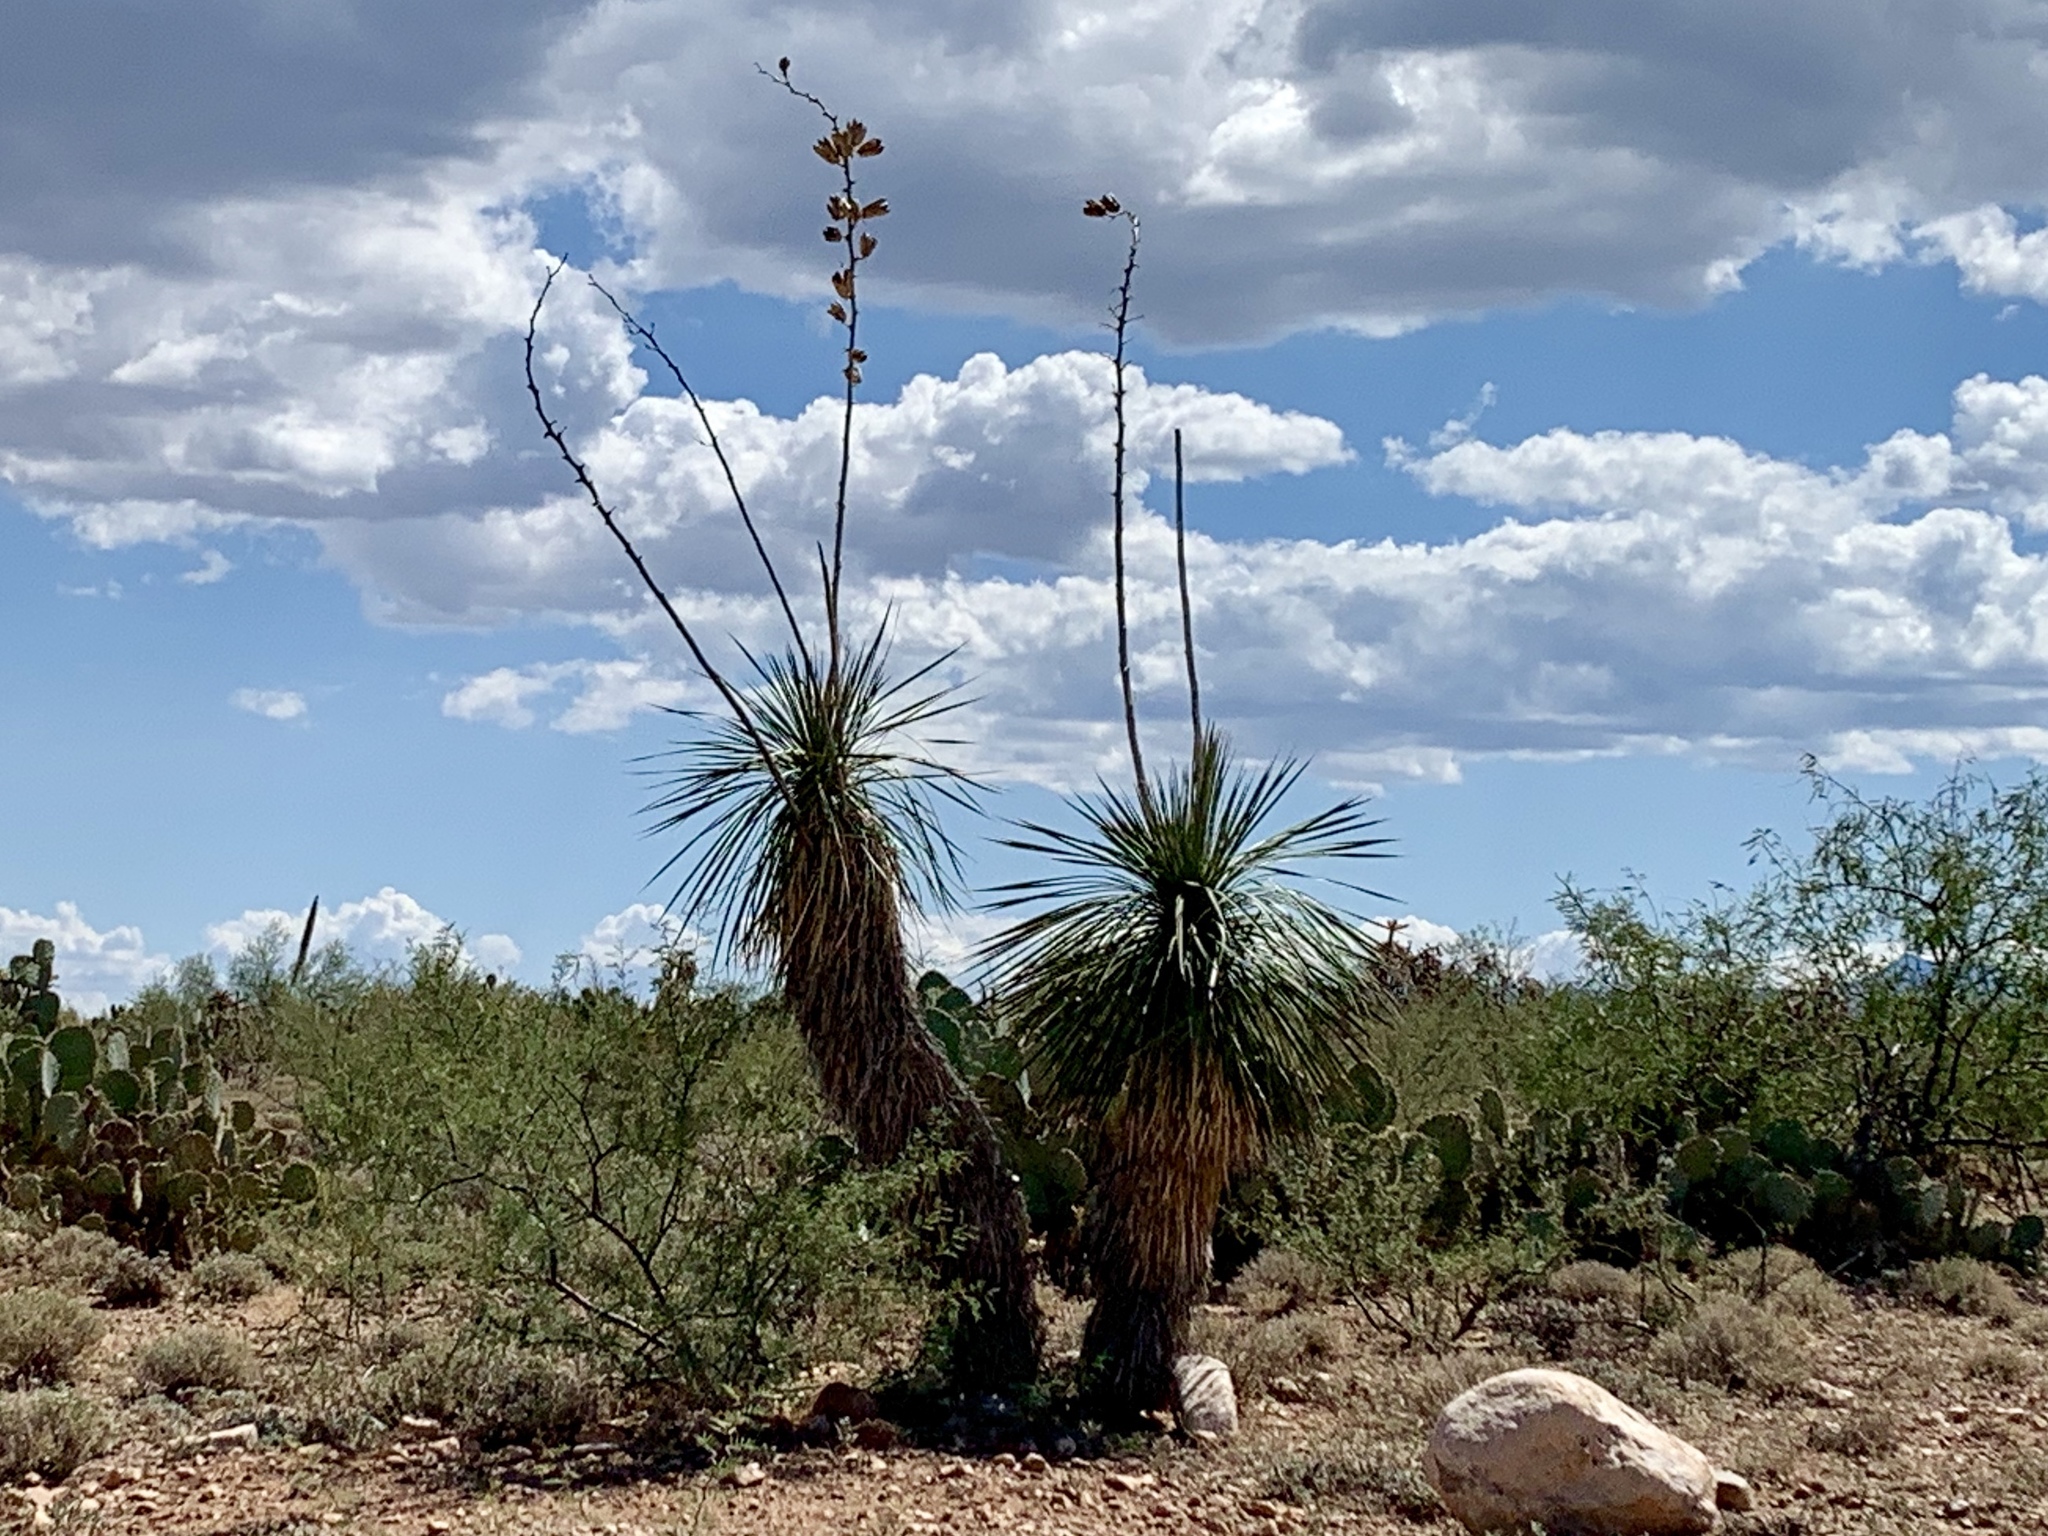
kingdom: Plantae
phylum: Tracheophyta
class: Liliopsida
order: Asparagales
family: Asparagaceae
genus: Yucca
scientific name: Yucca elata
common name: Palmella
